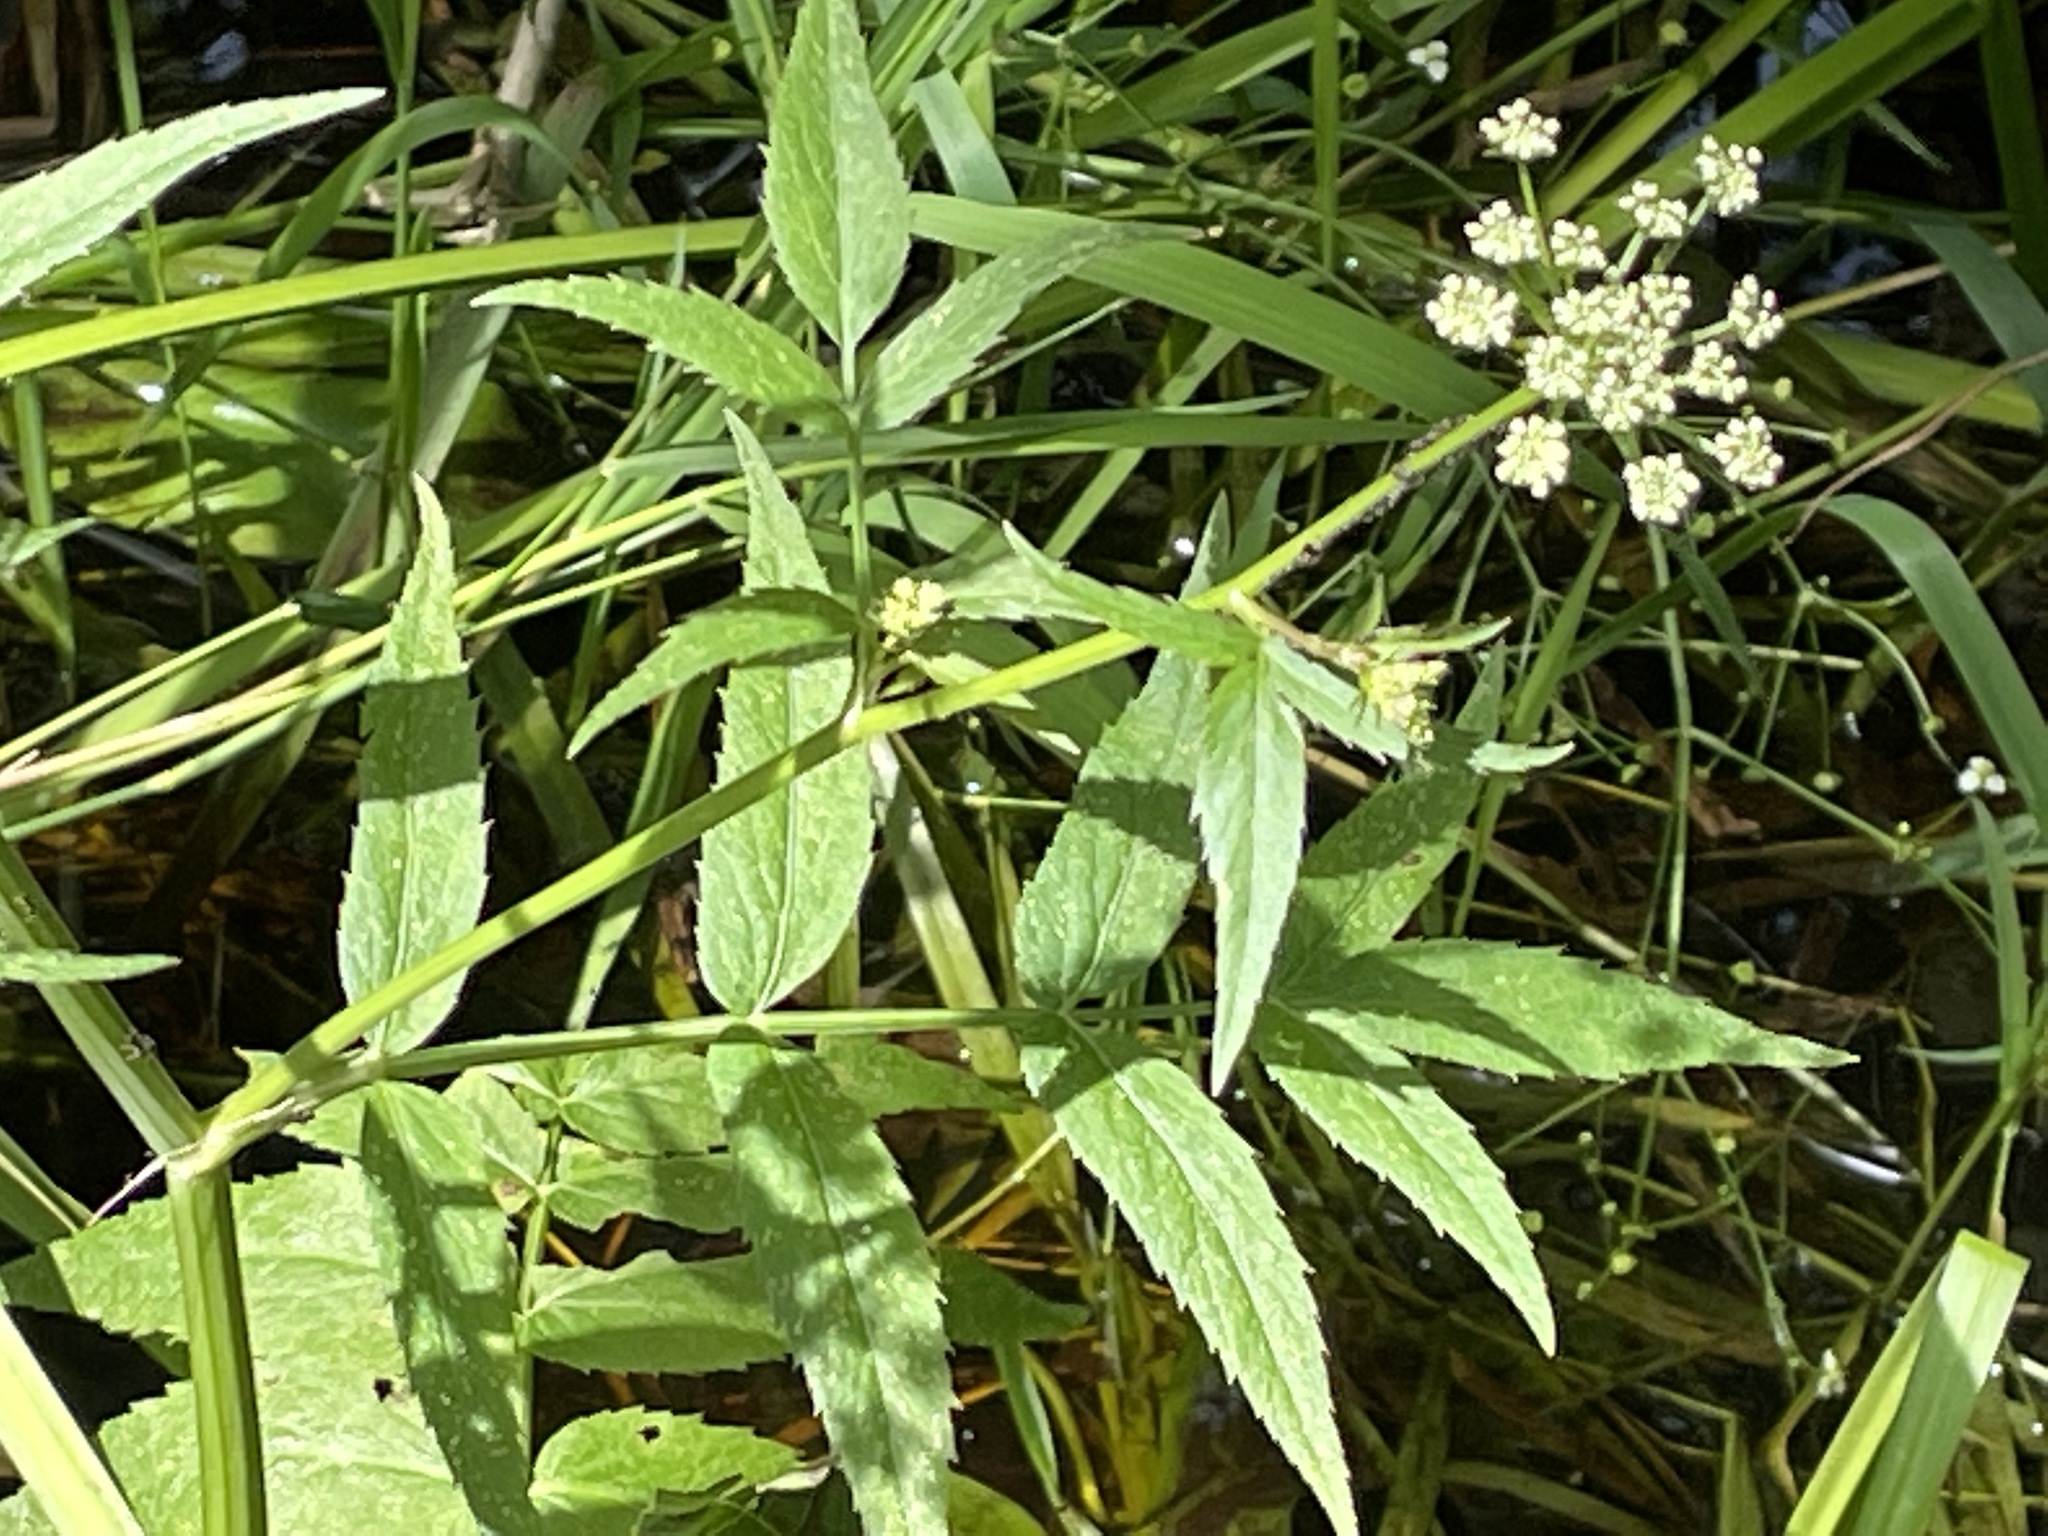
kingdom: Plantae
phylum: Tracheophyta
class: Magnoliopsida
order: Apiales
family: Apiaceae
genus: Sium
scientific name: Sium suave
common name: Hemlock water-parsnip
